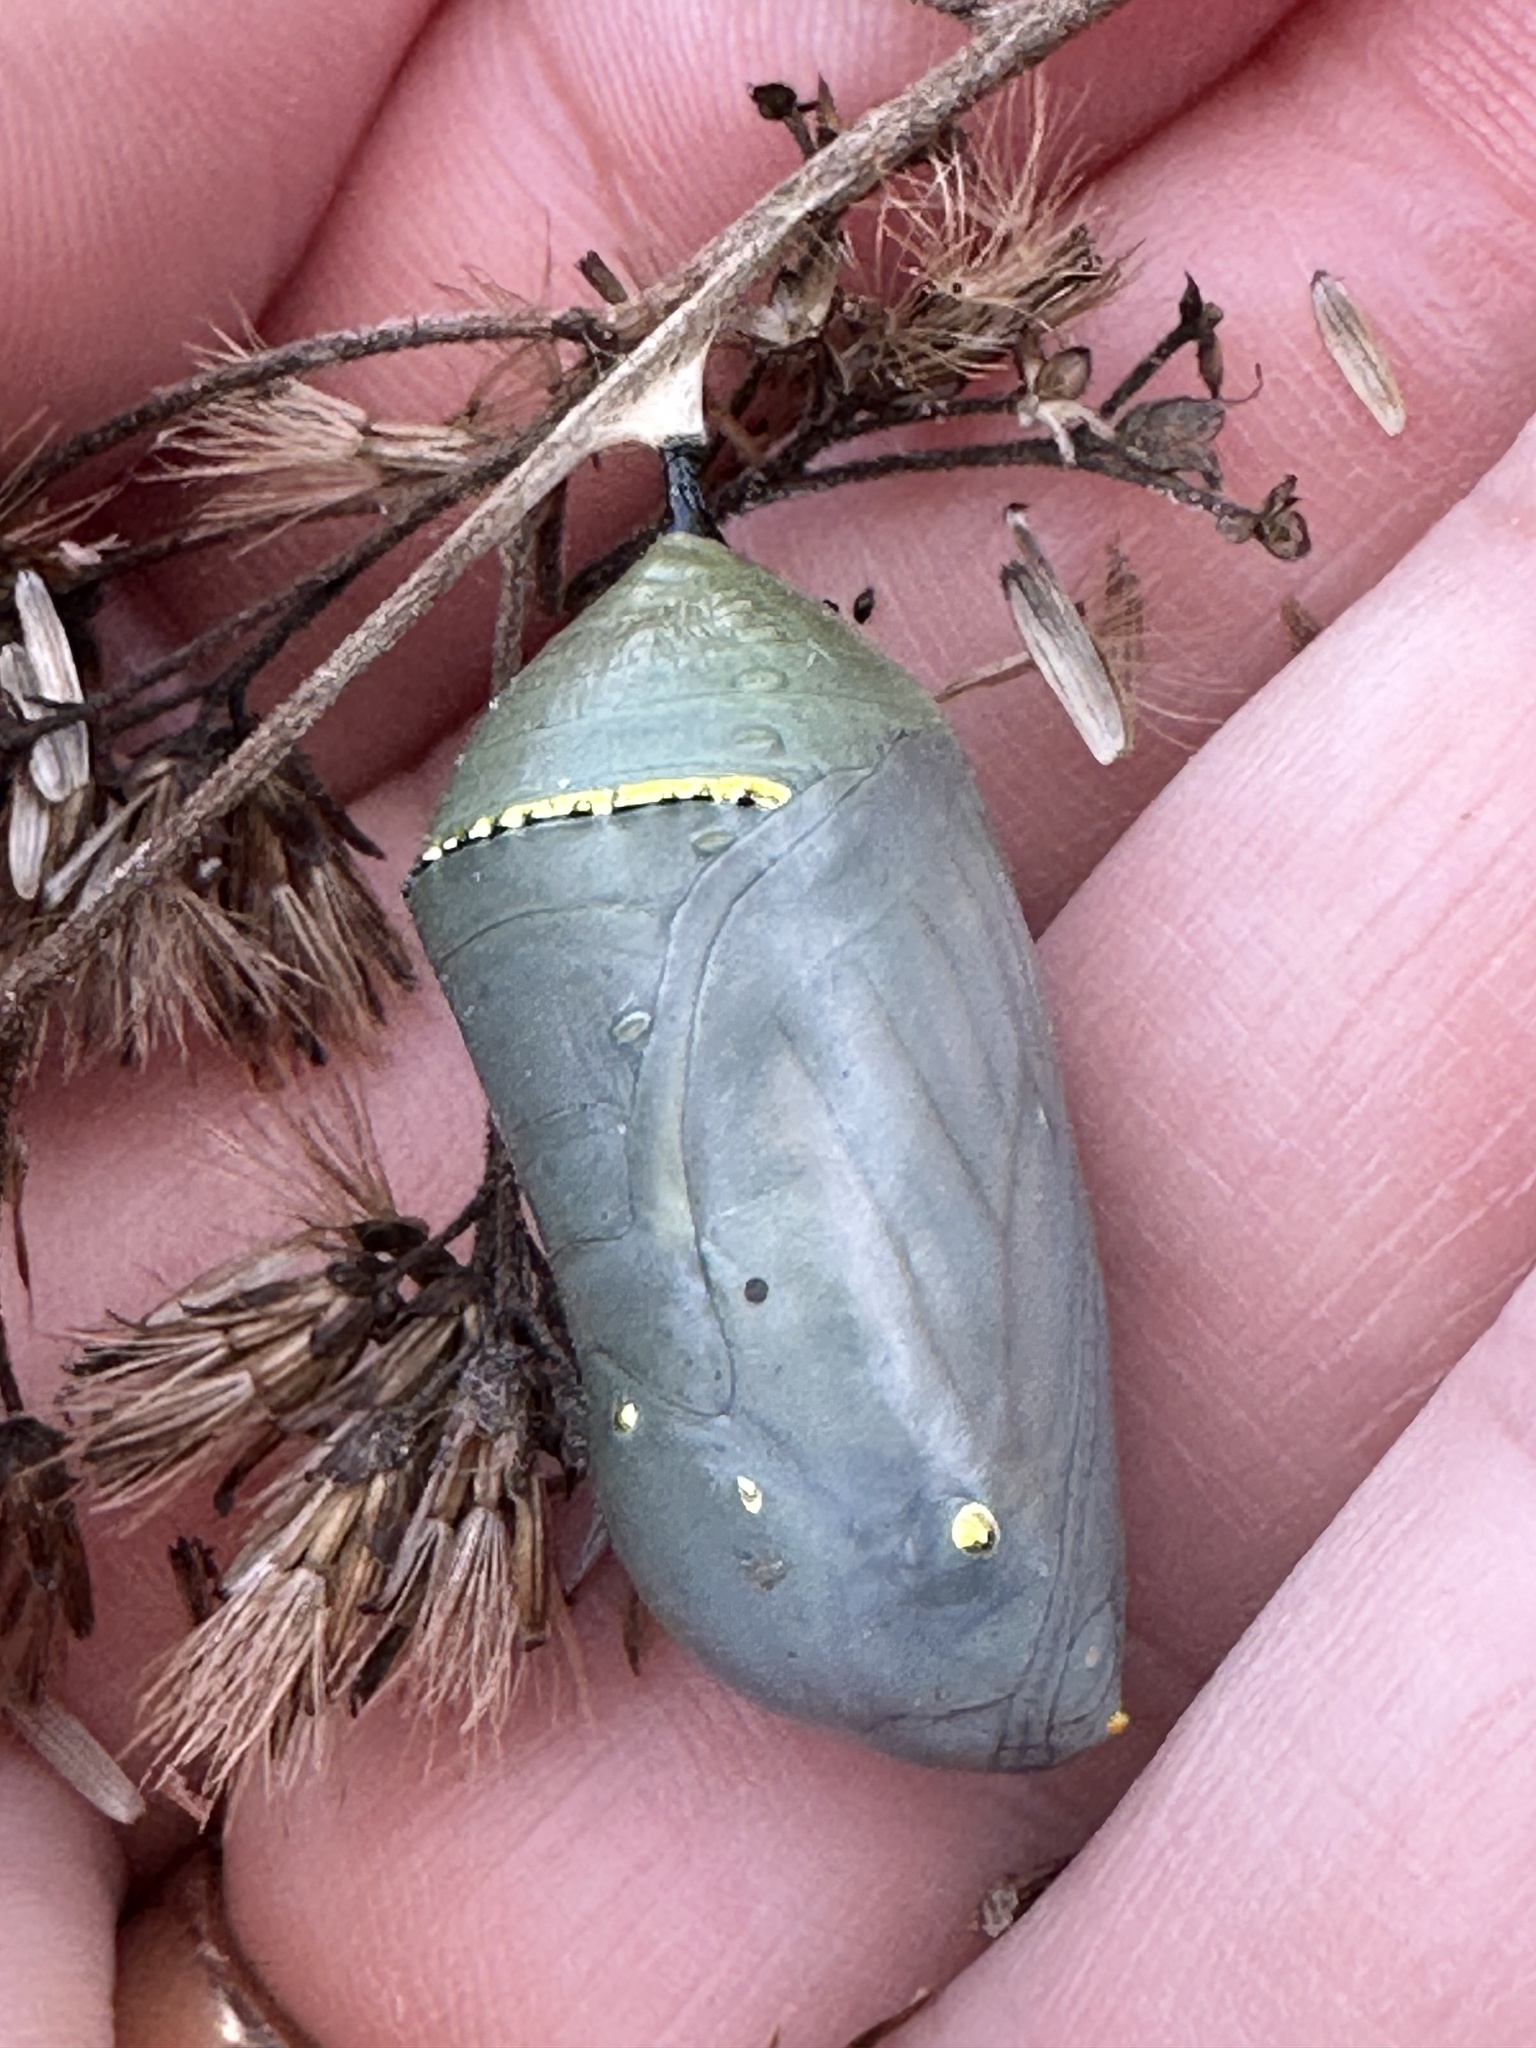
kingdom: Animalia
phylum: Arthropoda
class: Insecta
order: Lepidoptera
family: Nymphalidae
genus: Danaus
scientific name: Danaus plexippus
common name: Monarch
